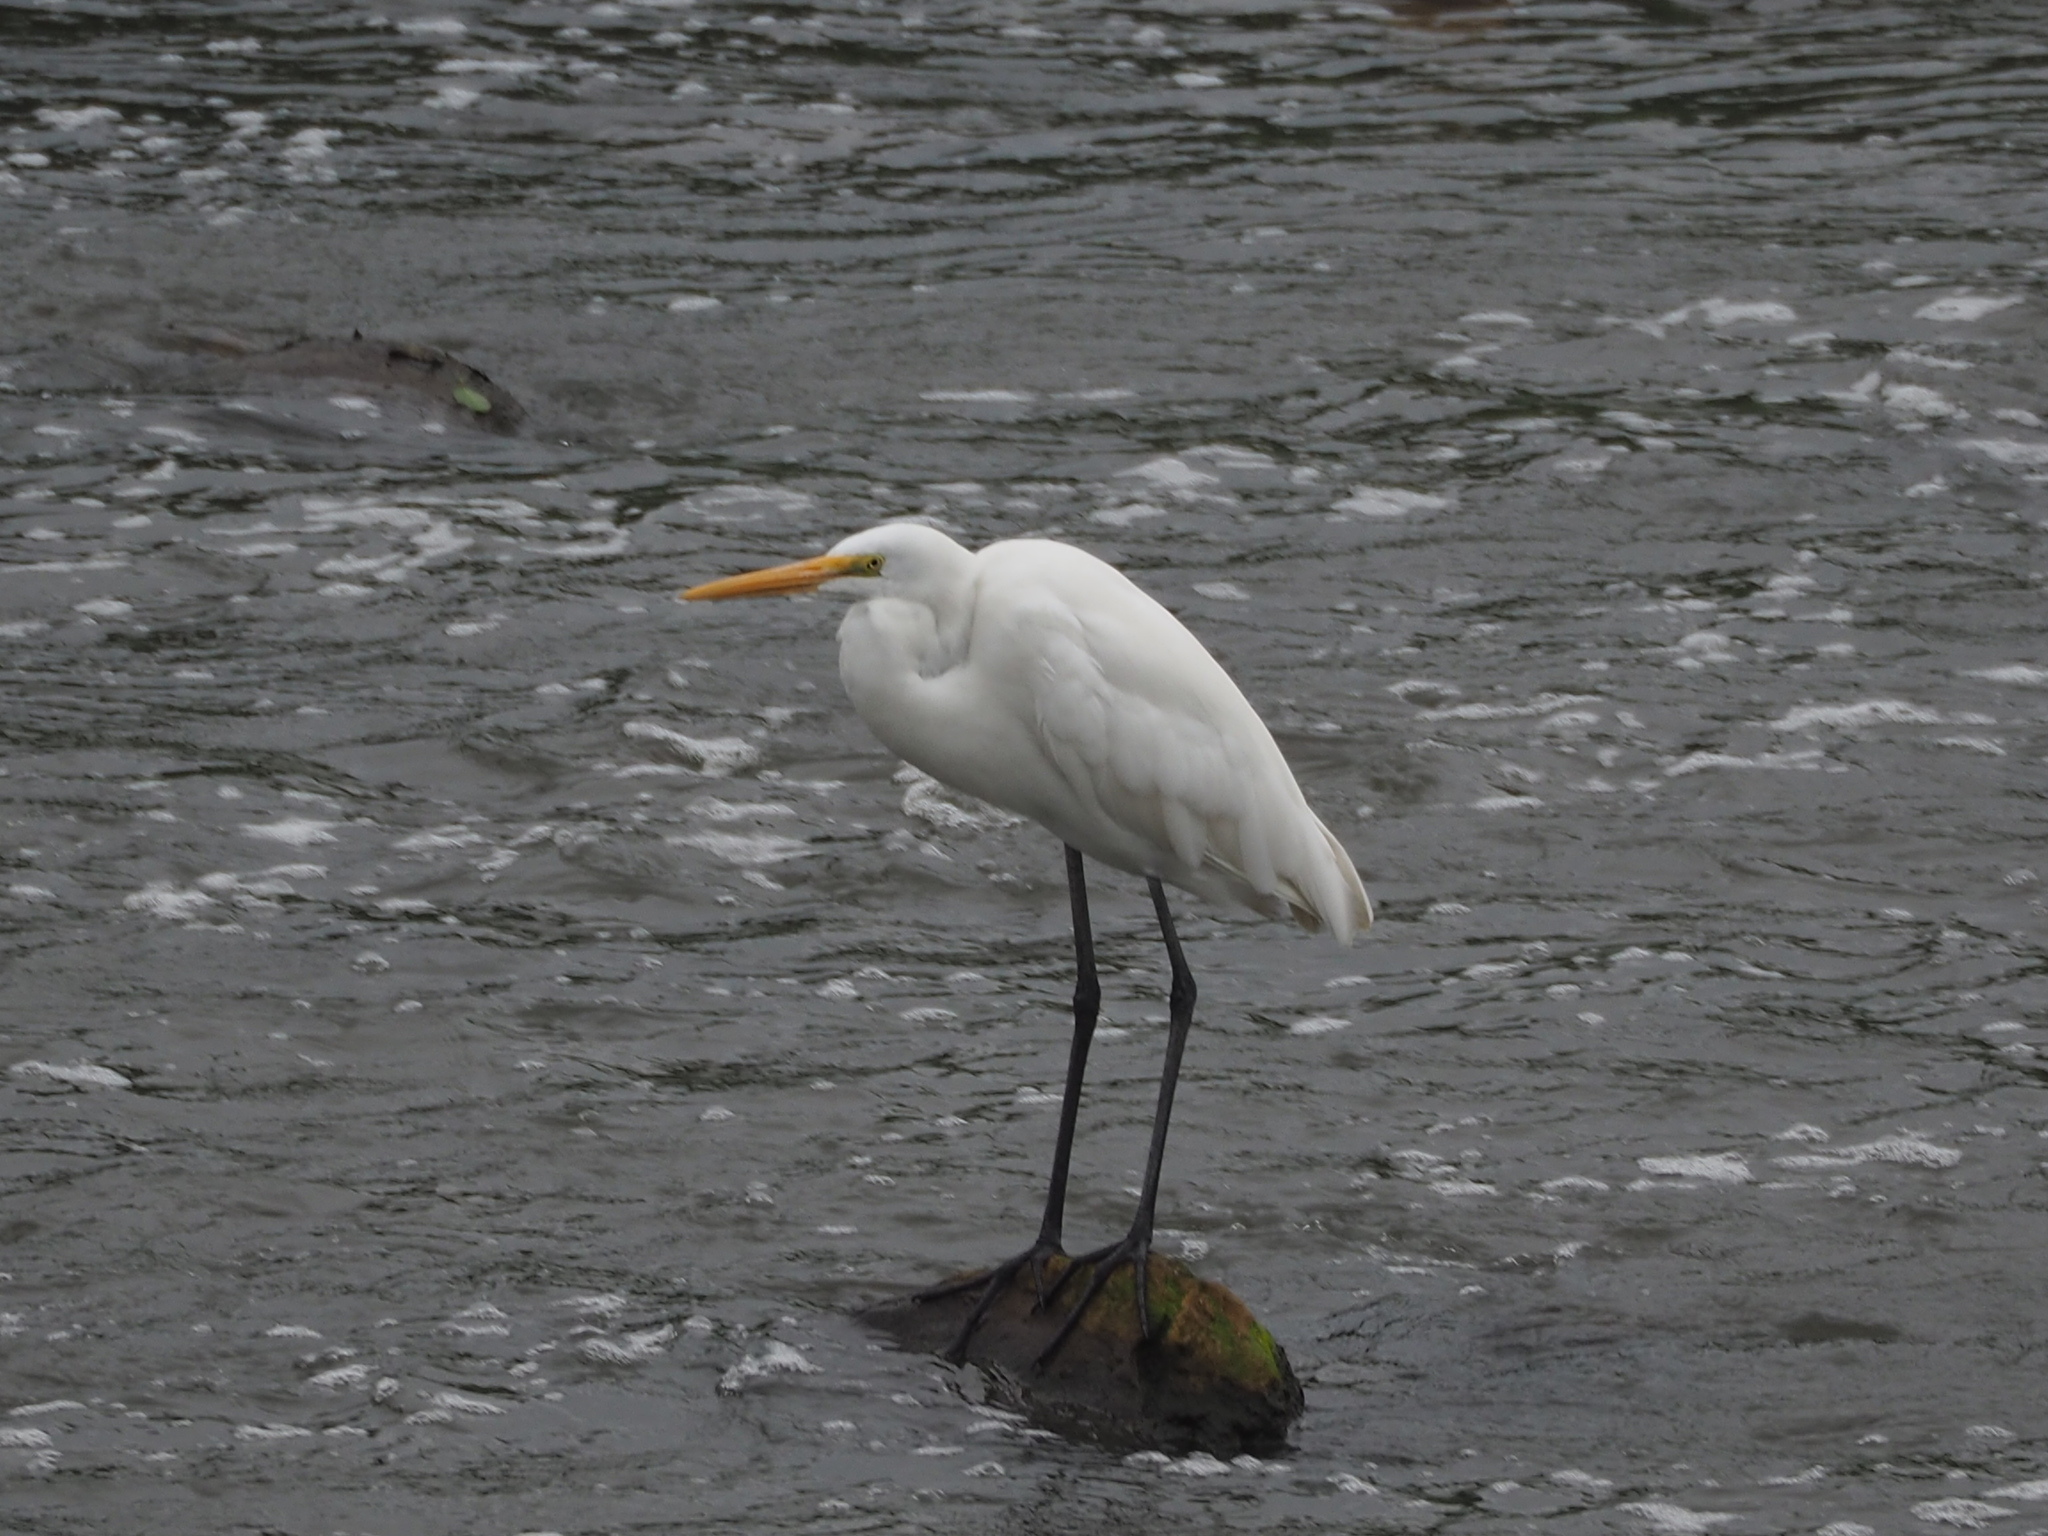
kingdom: Animalia
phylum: Chordata
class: Aves
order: Pelecaniformes
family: Ardeidae
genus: Ardea
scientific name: Ardea alba
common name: Great egret
